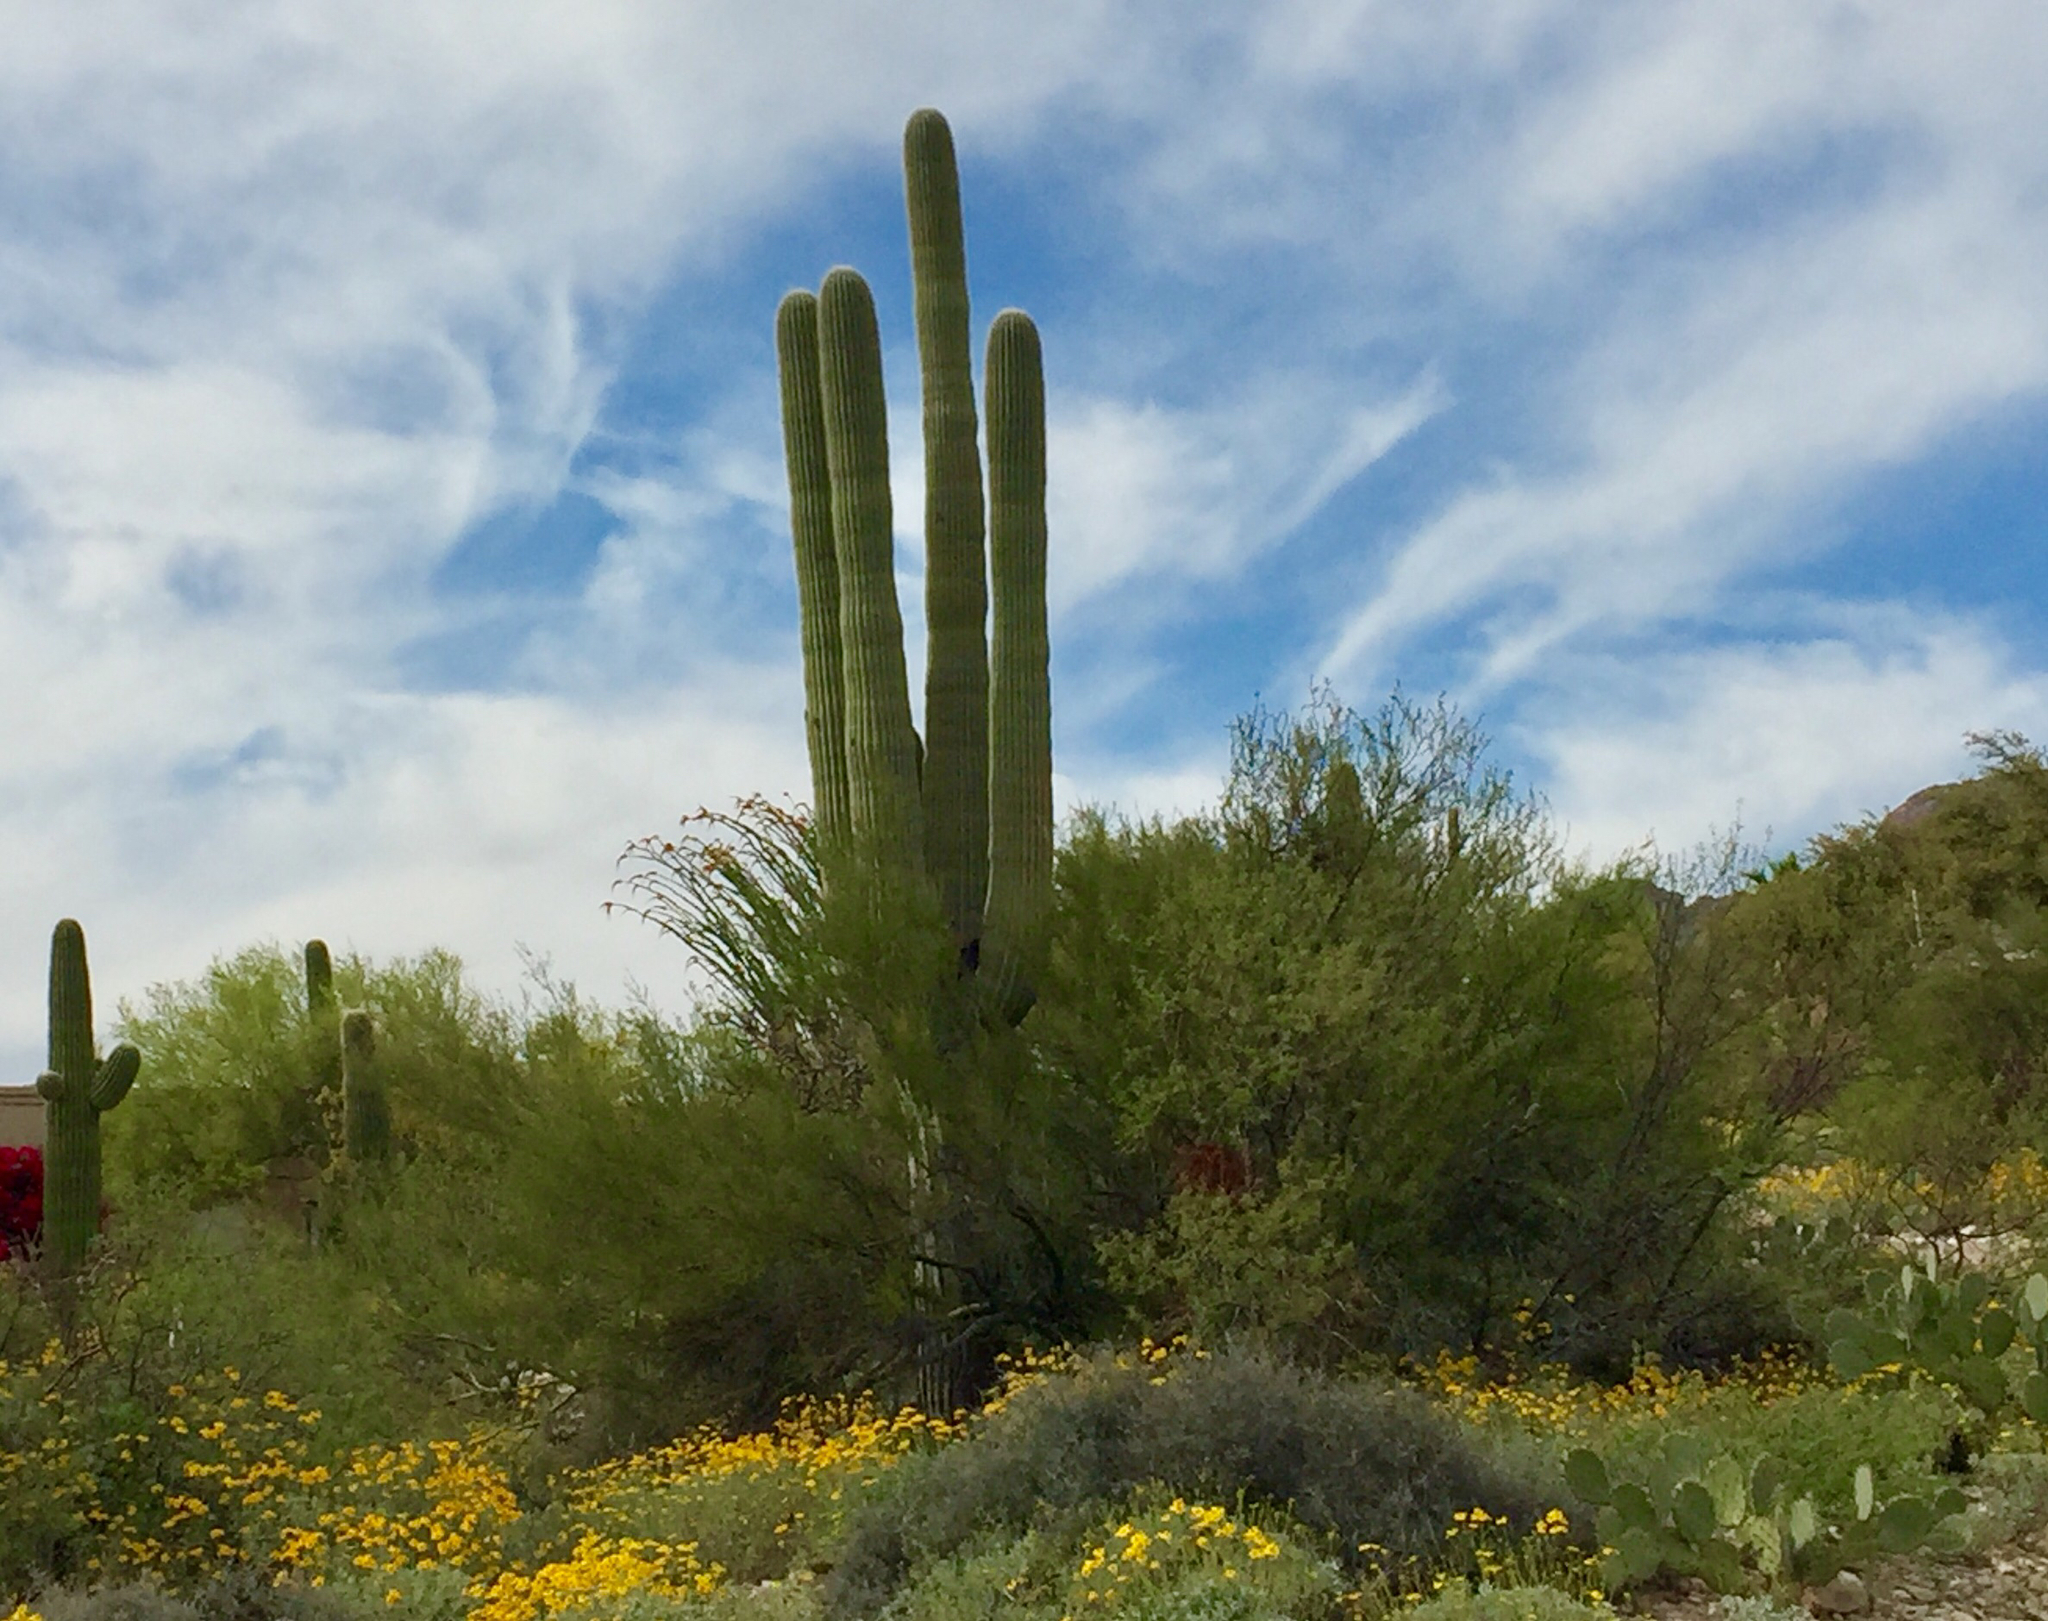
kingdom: Plantae
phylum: Tracheophyta
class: Magnoliopsida
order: Caryophyllales
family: Cactaceae
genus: Carnegiea
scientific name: Carnegiea gigantea
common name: Saguaro
